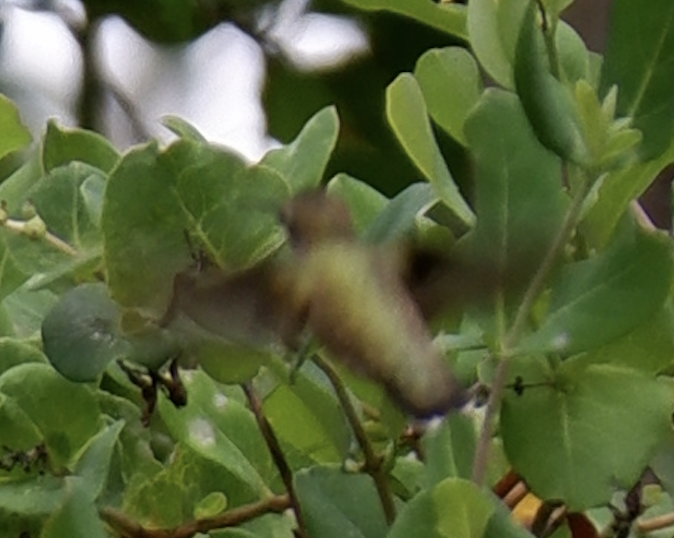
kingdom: Animalia
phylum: Chordata
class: Aves
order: Apodiformes
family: Trochilidae
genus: Archilochus
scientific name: Archilochus colubris
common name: Ruby-throated hummingbird
